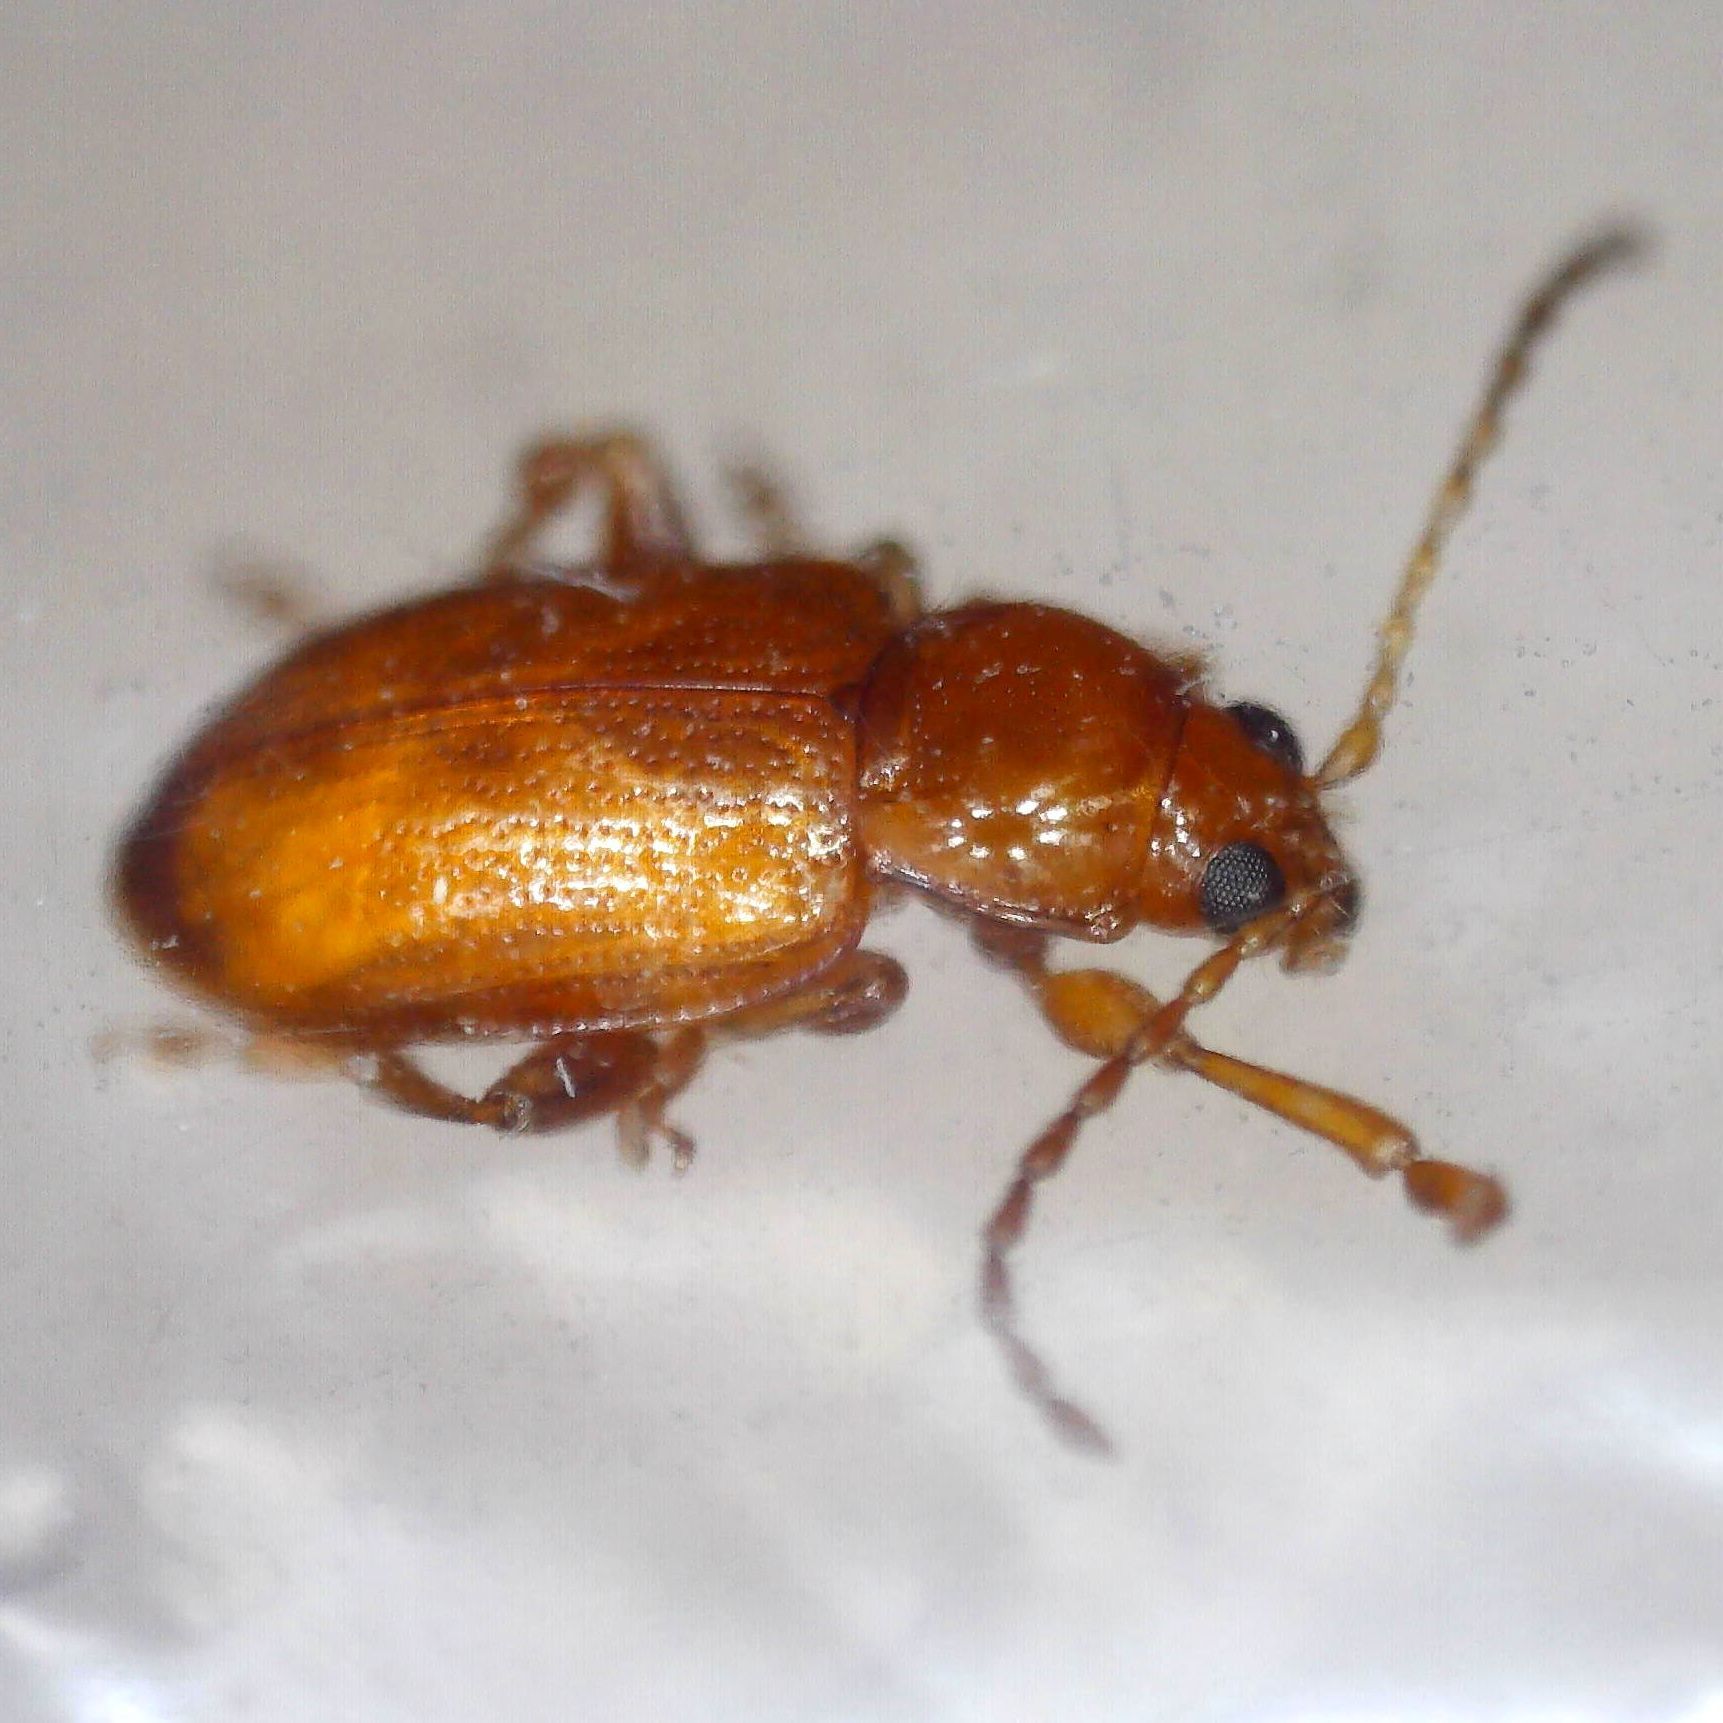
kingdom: Animalia
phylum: Arthropoda
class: Insecta
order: Coleoptera
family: Chrysomelidae
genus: Neocrepidodera
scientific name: Neocrepidodera transversa
